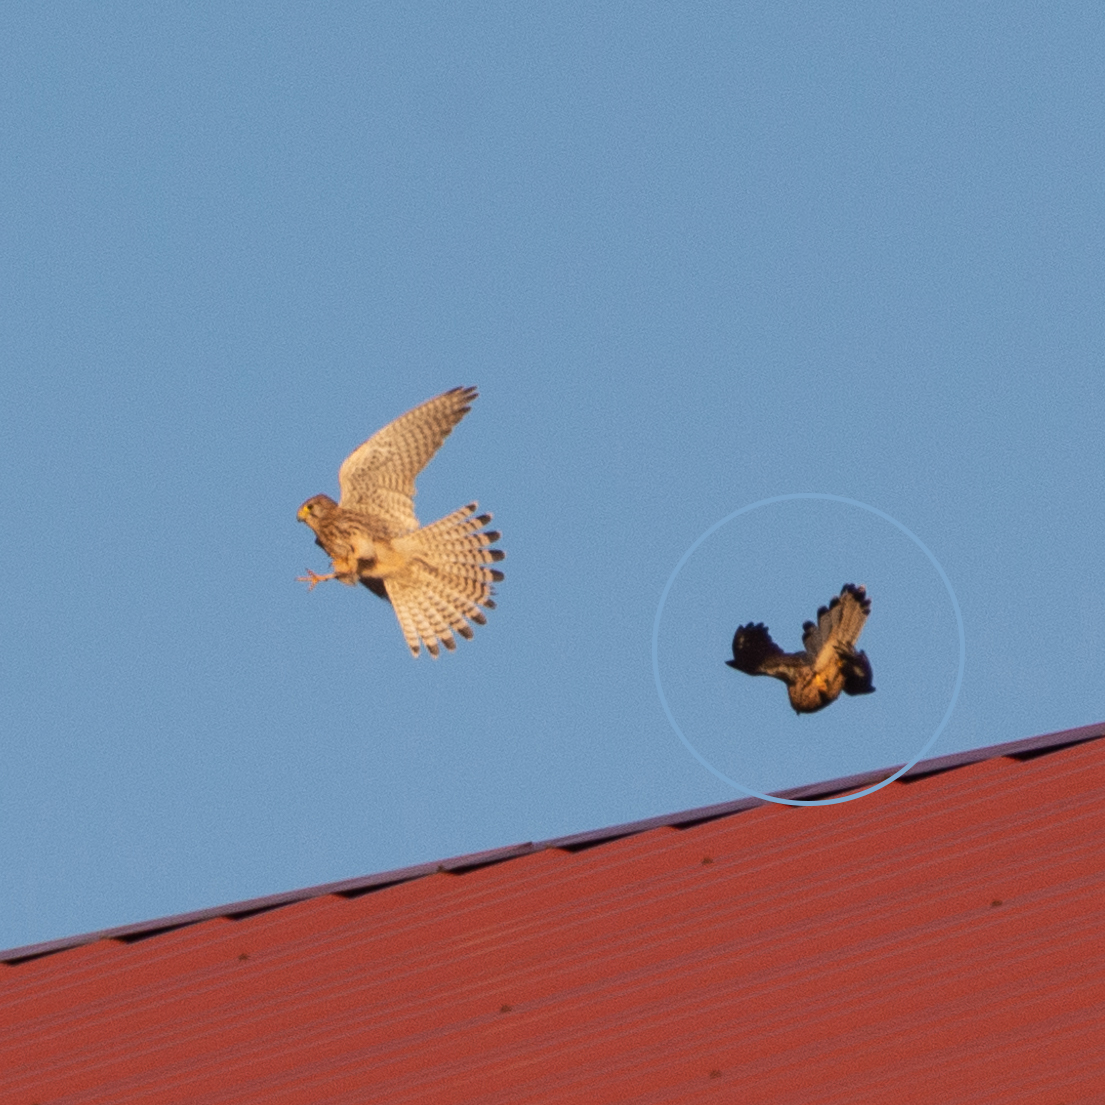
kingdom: Animalia
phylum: Chordata
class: Aves
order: Falconiformes
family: Falconidae
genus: Falco
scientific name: Falco tinnunculus
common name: Common kestrel
